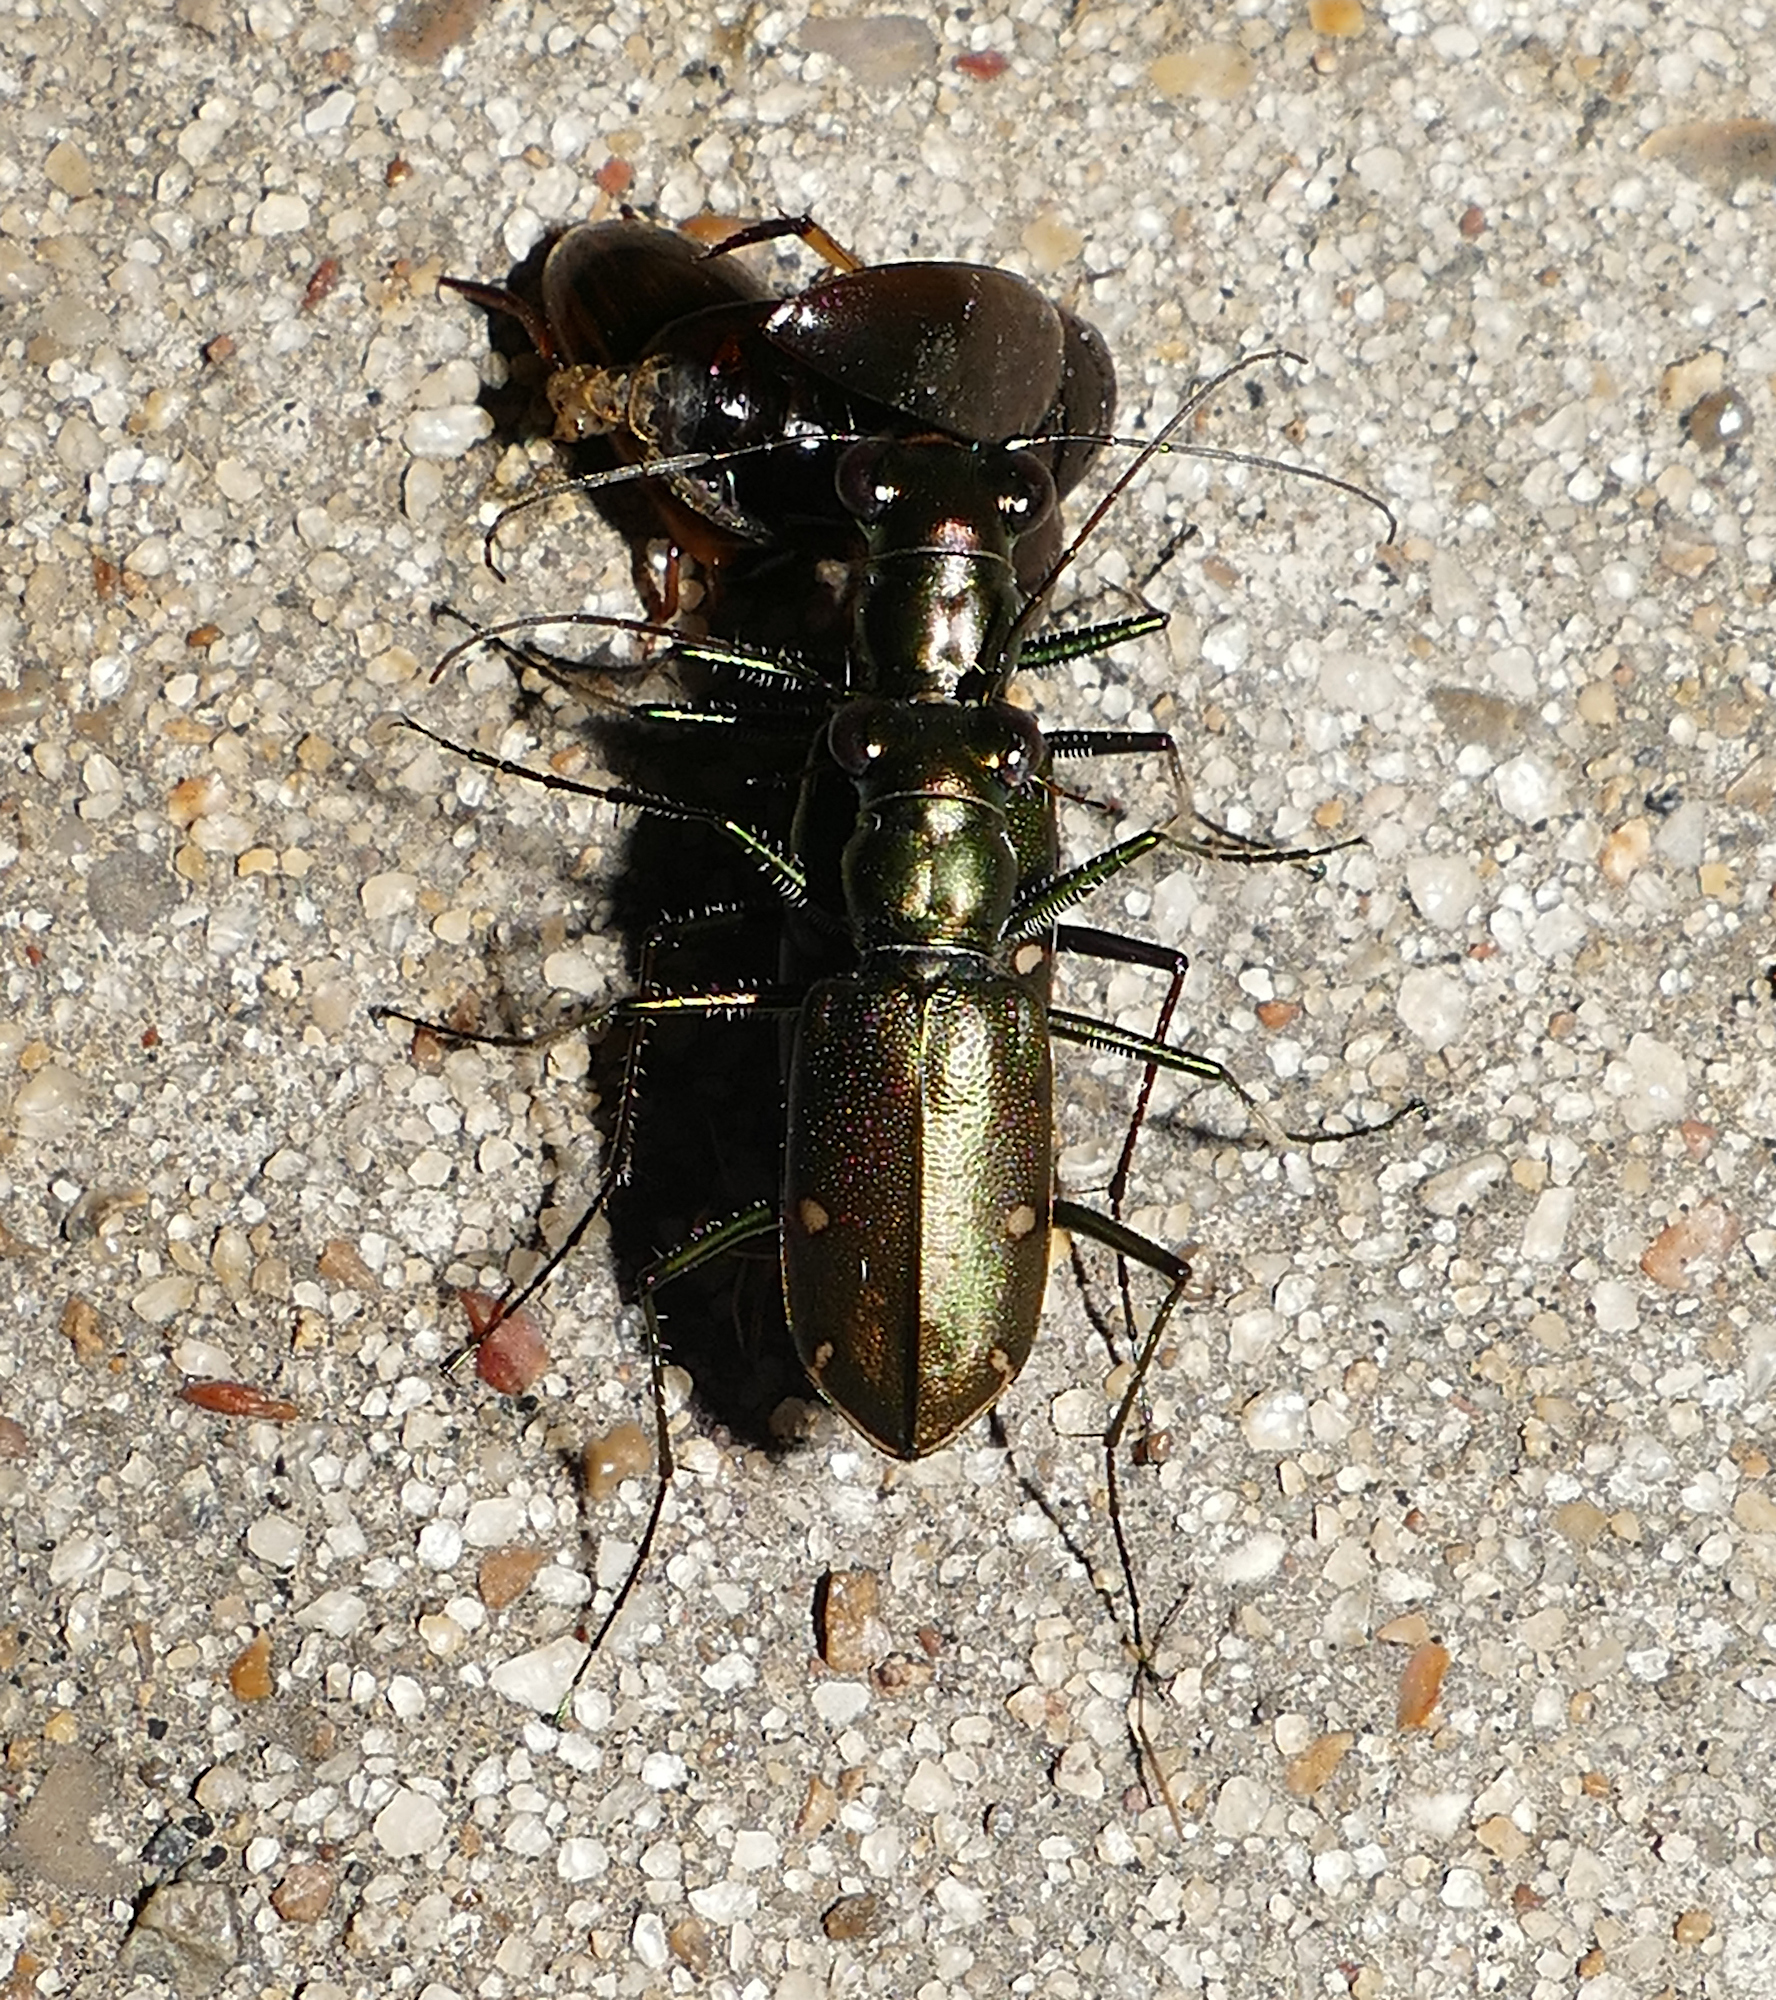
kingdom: Animalia
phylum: Arthropoda
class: Insecta
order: Coleoptera
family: Carabidae
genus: Eunota
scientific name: Eunota severa
